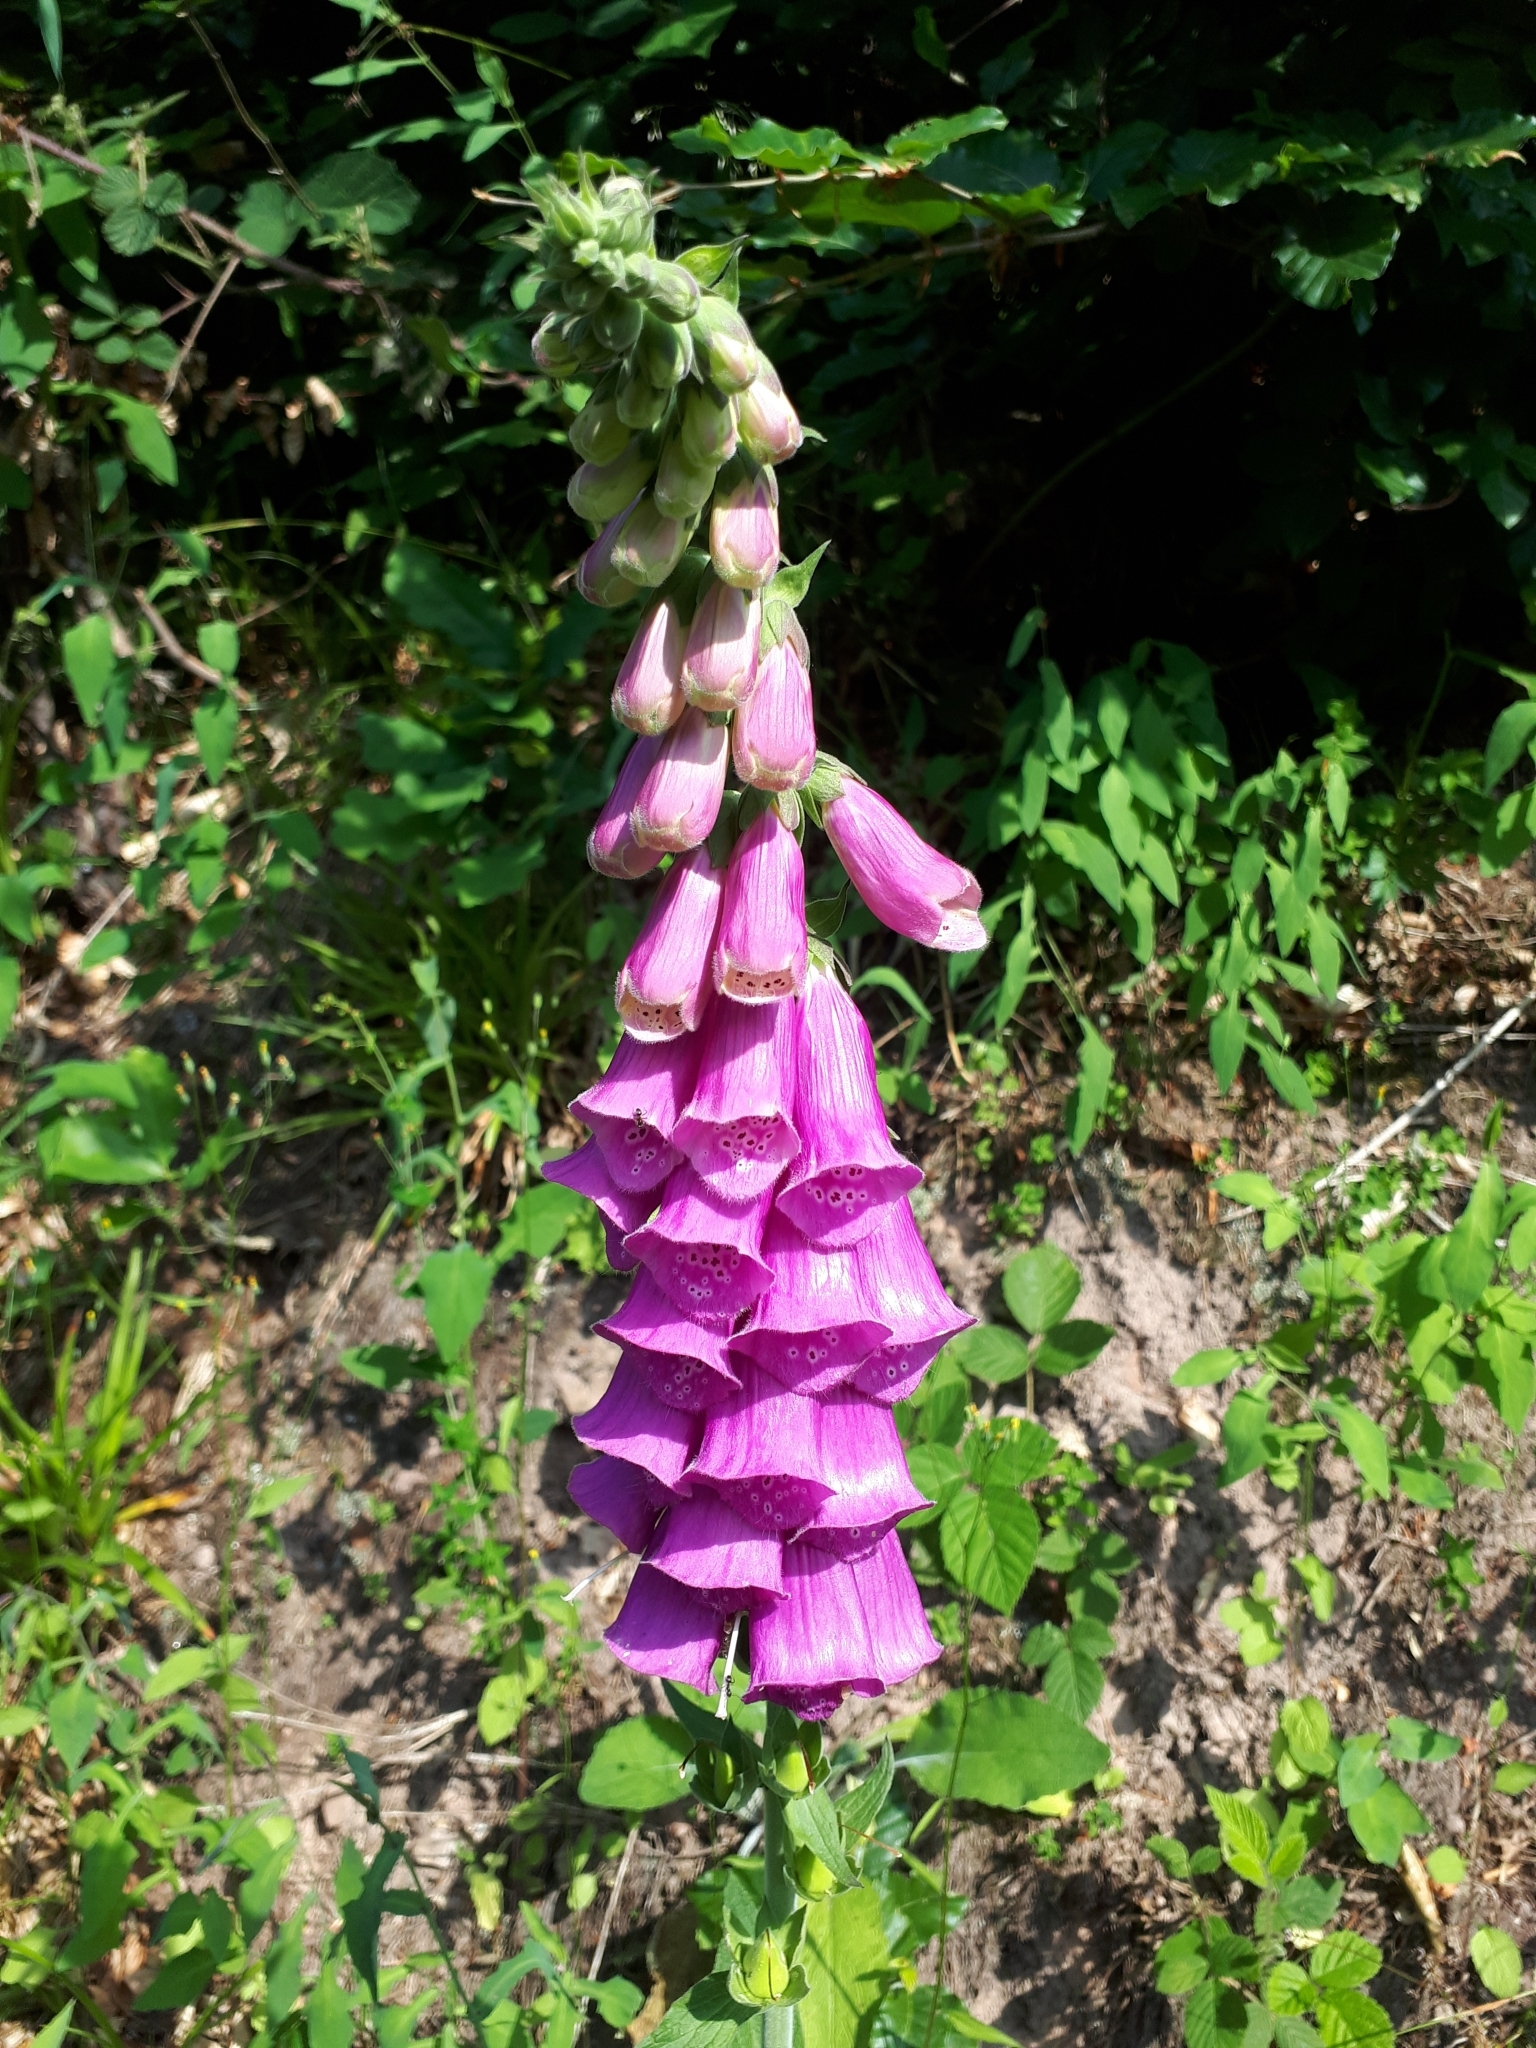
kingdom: Plantae
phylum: Tracheophyta
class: Magnoliopsida
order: Lamiales
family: Plantaginaceae
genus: Digitalis
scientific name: Digitalis purpurea
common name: Foxglove
